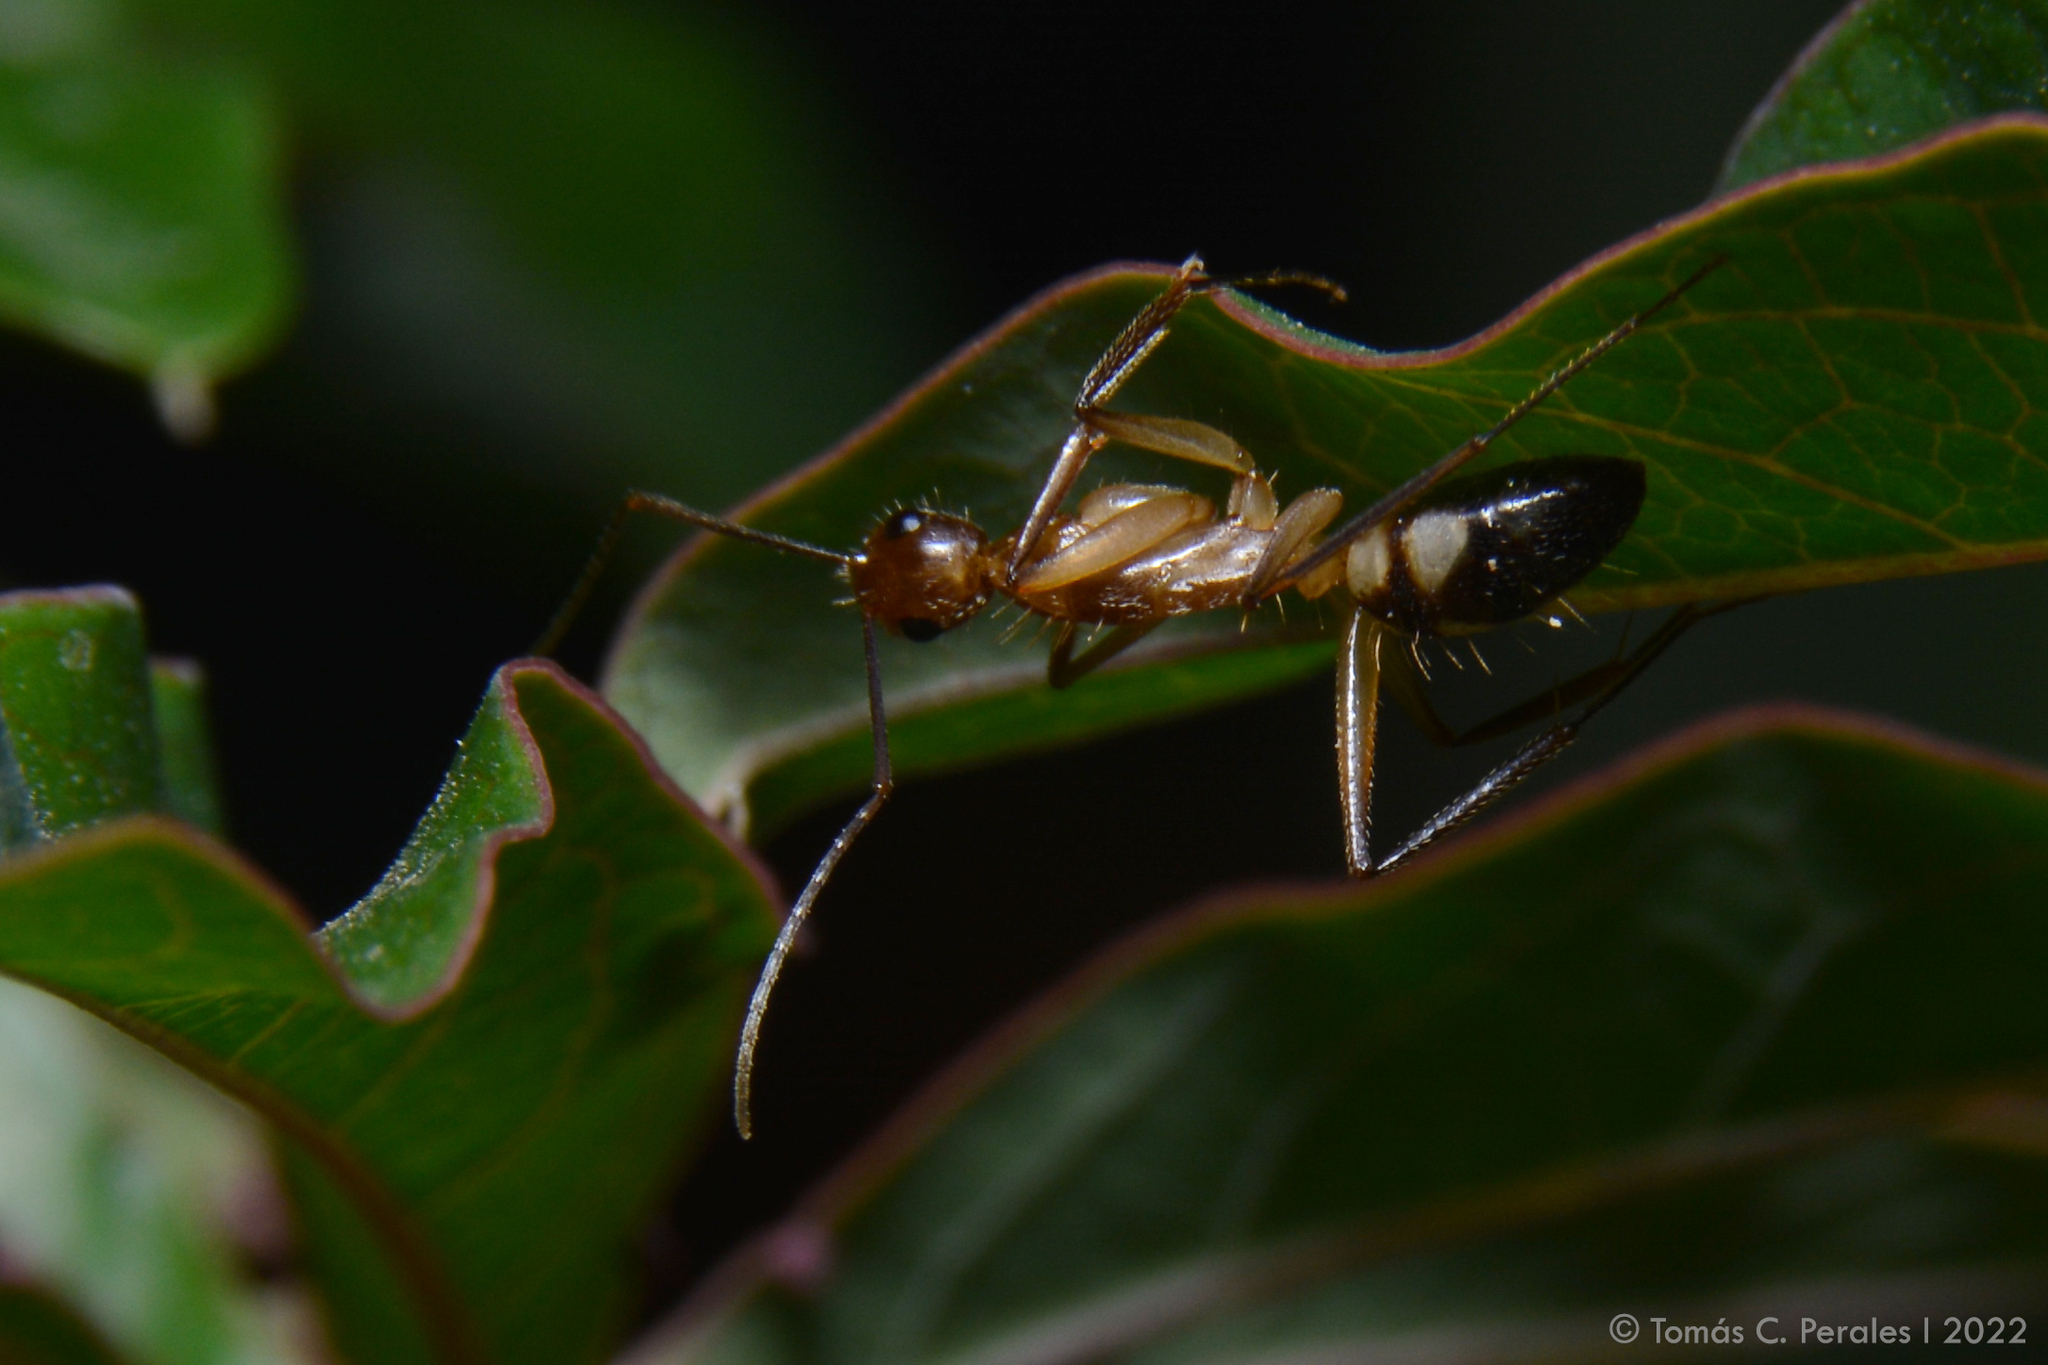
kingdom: Animalia
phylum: Arthropoda
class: Insecta
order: Hymenoptera
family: Formicidae
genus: Camponotus
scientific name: Camponotus substitutus
